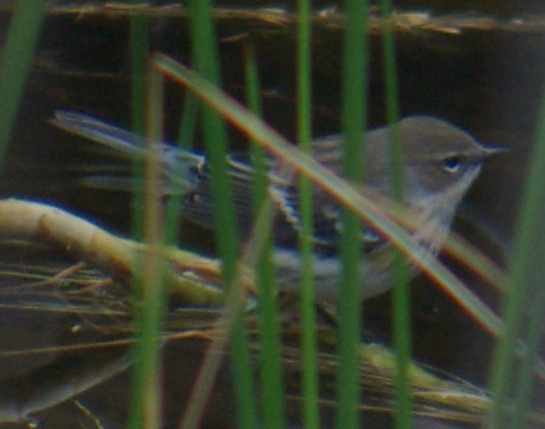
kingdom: Animalia
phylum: Chordata
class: Aves
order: Passeriformes
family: Parulidae
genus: Setophaga
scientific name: Setophaga coronata
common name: Myrtle warbler
